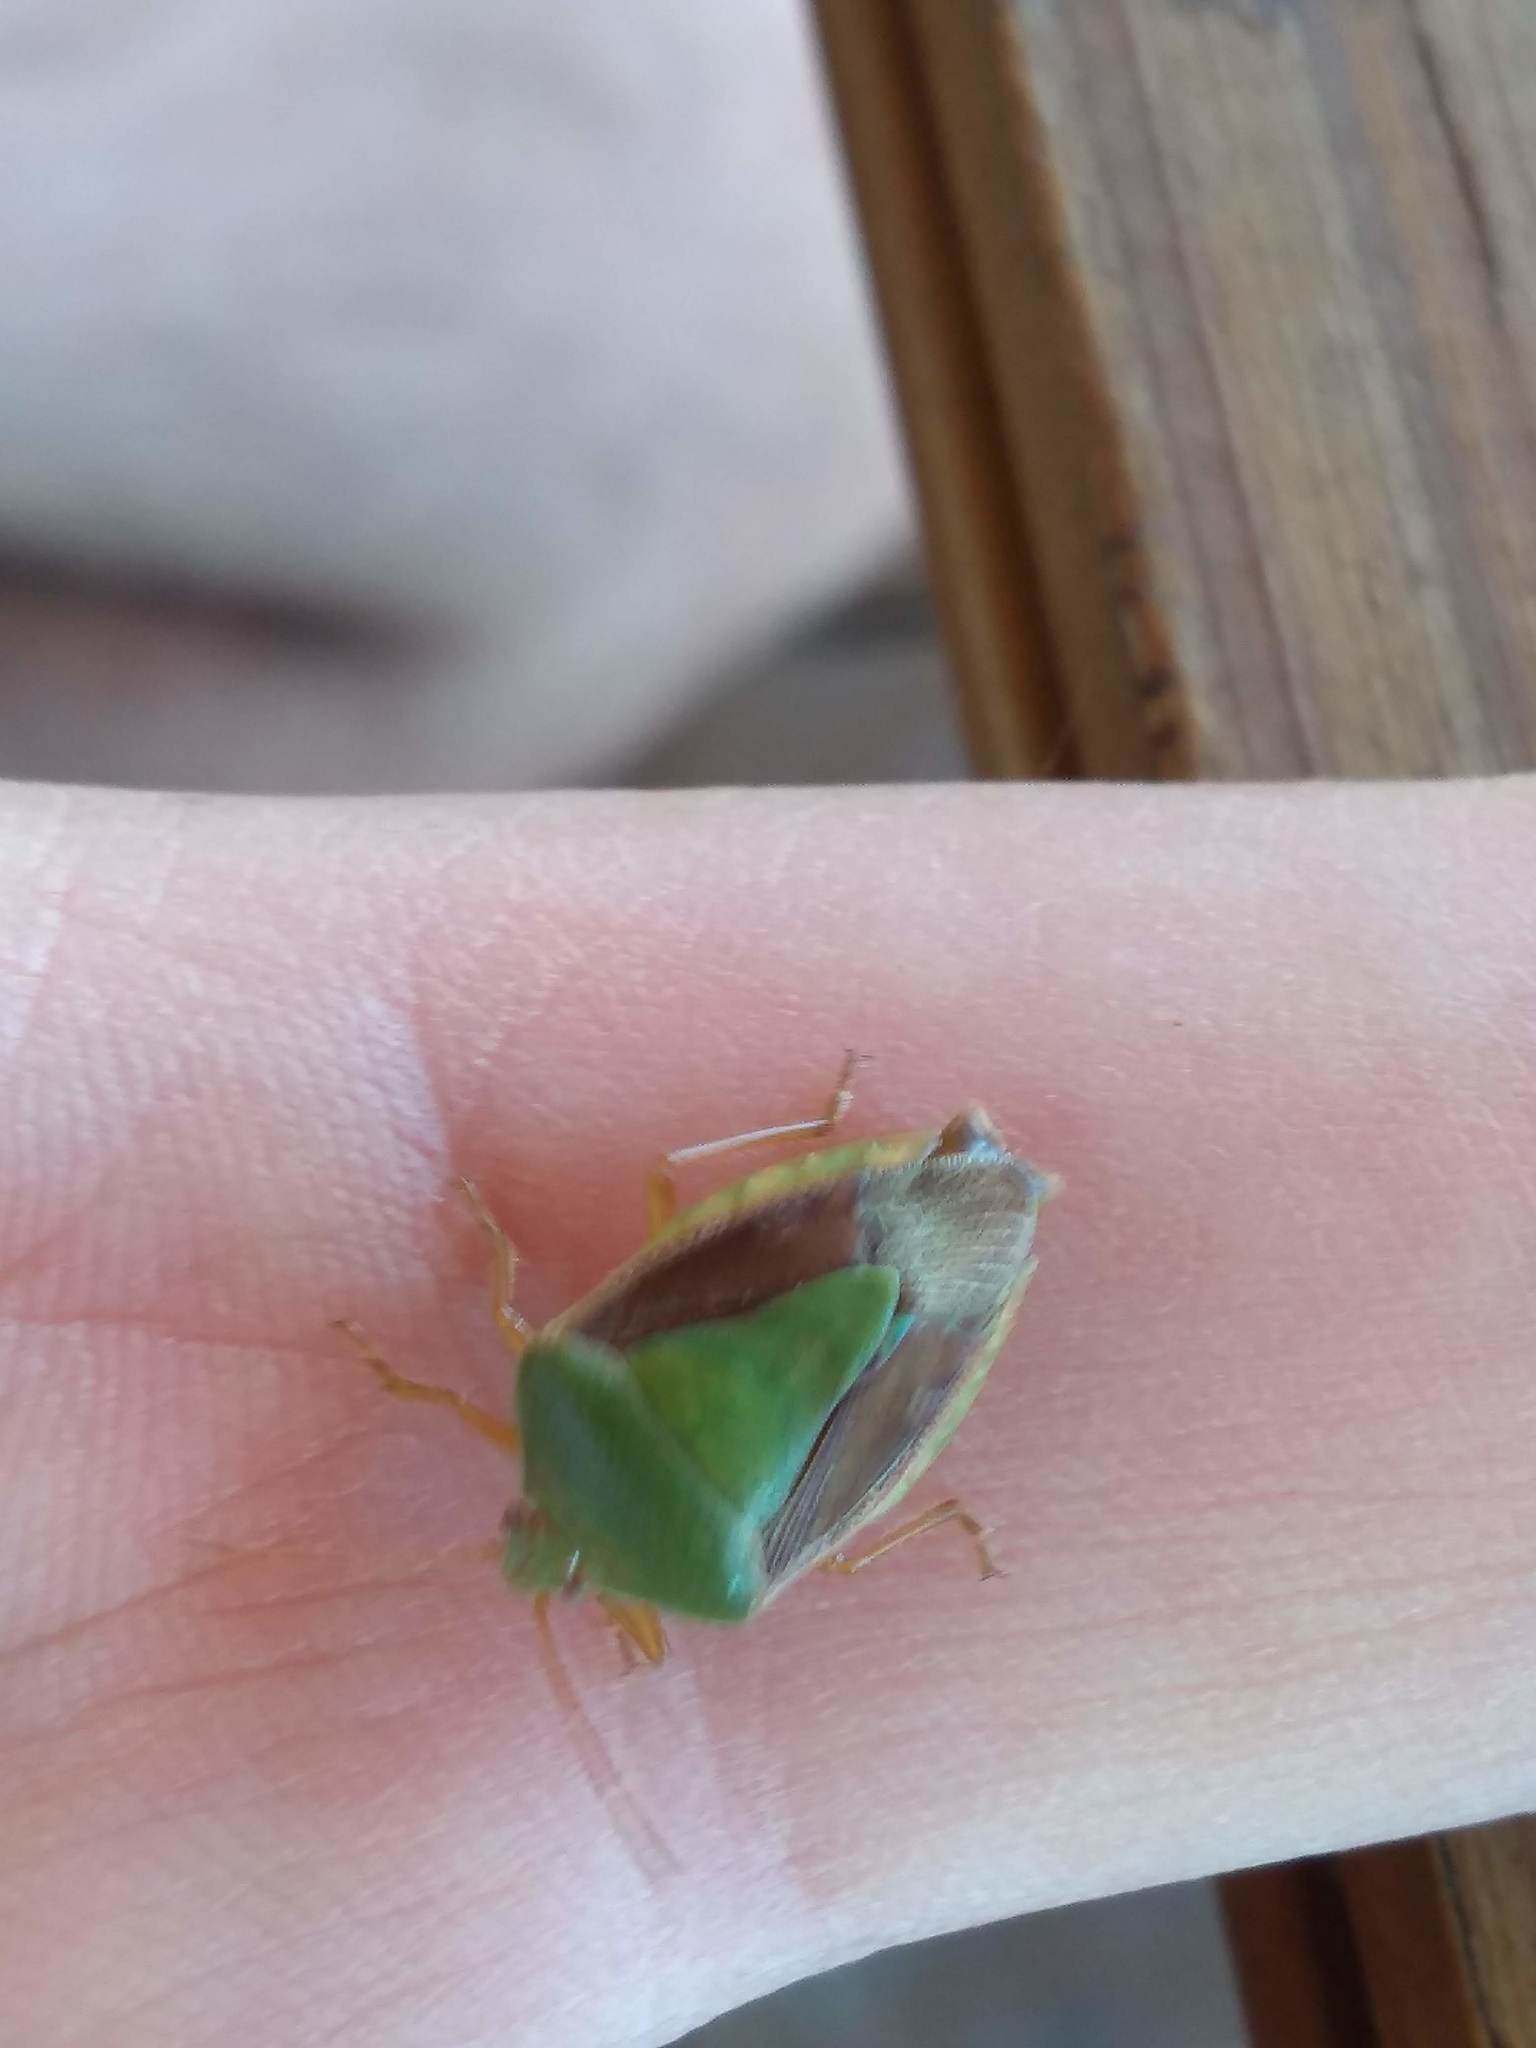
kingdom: Animalia
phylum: Arthropoda
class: Insecta
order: Hemiptera
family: Pentatomidae
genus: Edessa
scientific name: Edessa meditabunda
